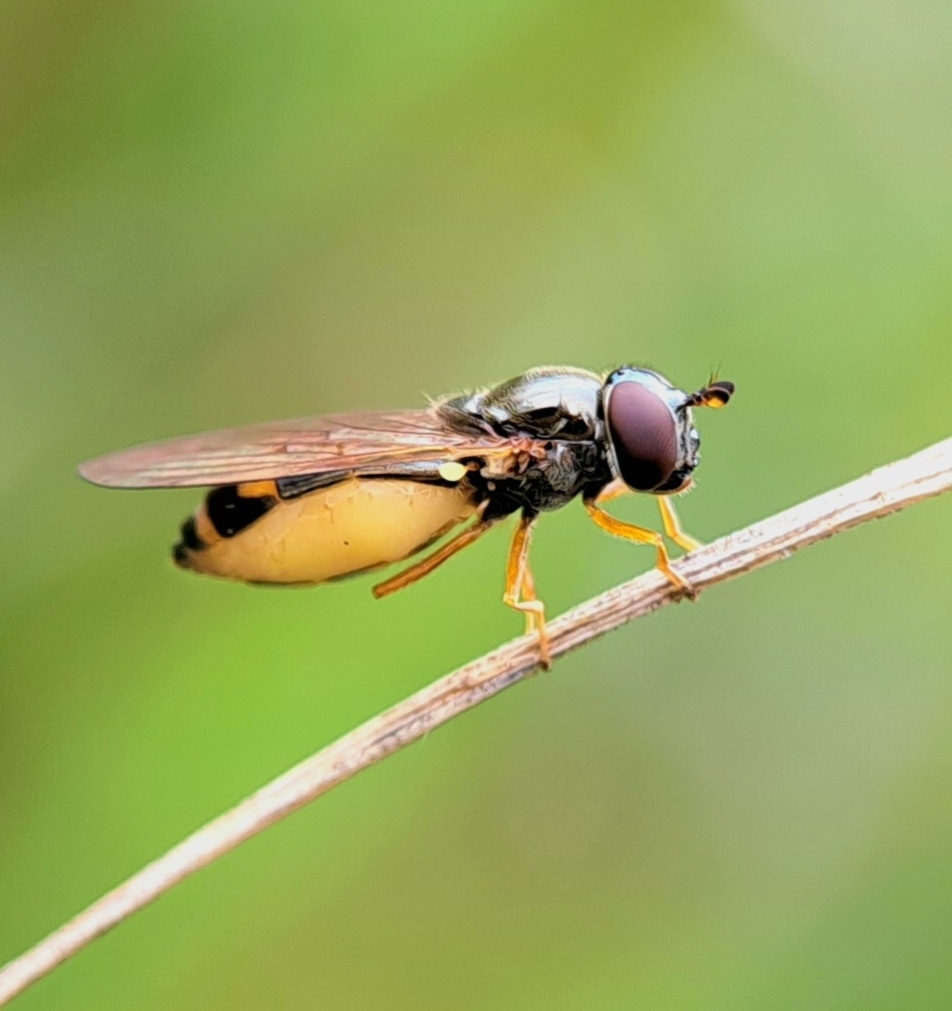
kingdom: Animalia
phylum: Arthropoda
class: Insecta
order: Diptera
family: Syrphidae
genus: Melanostoma
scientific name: Melanostoma
